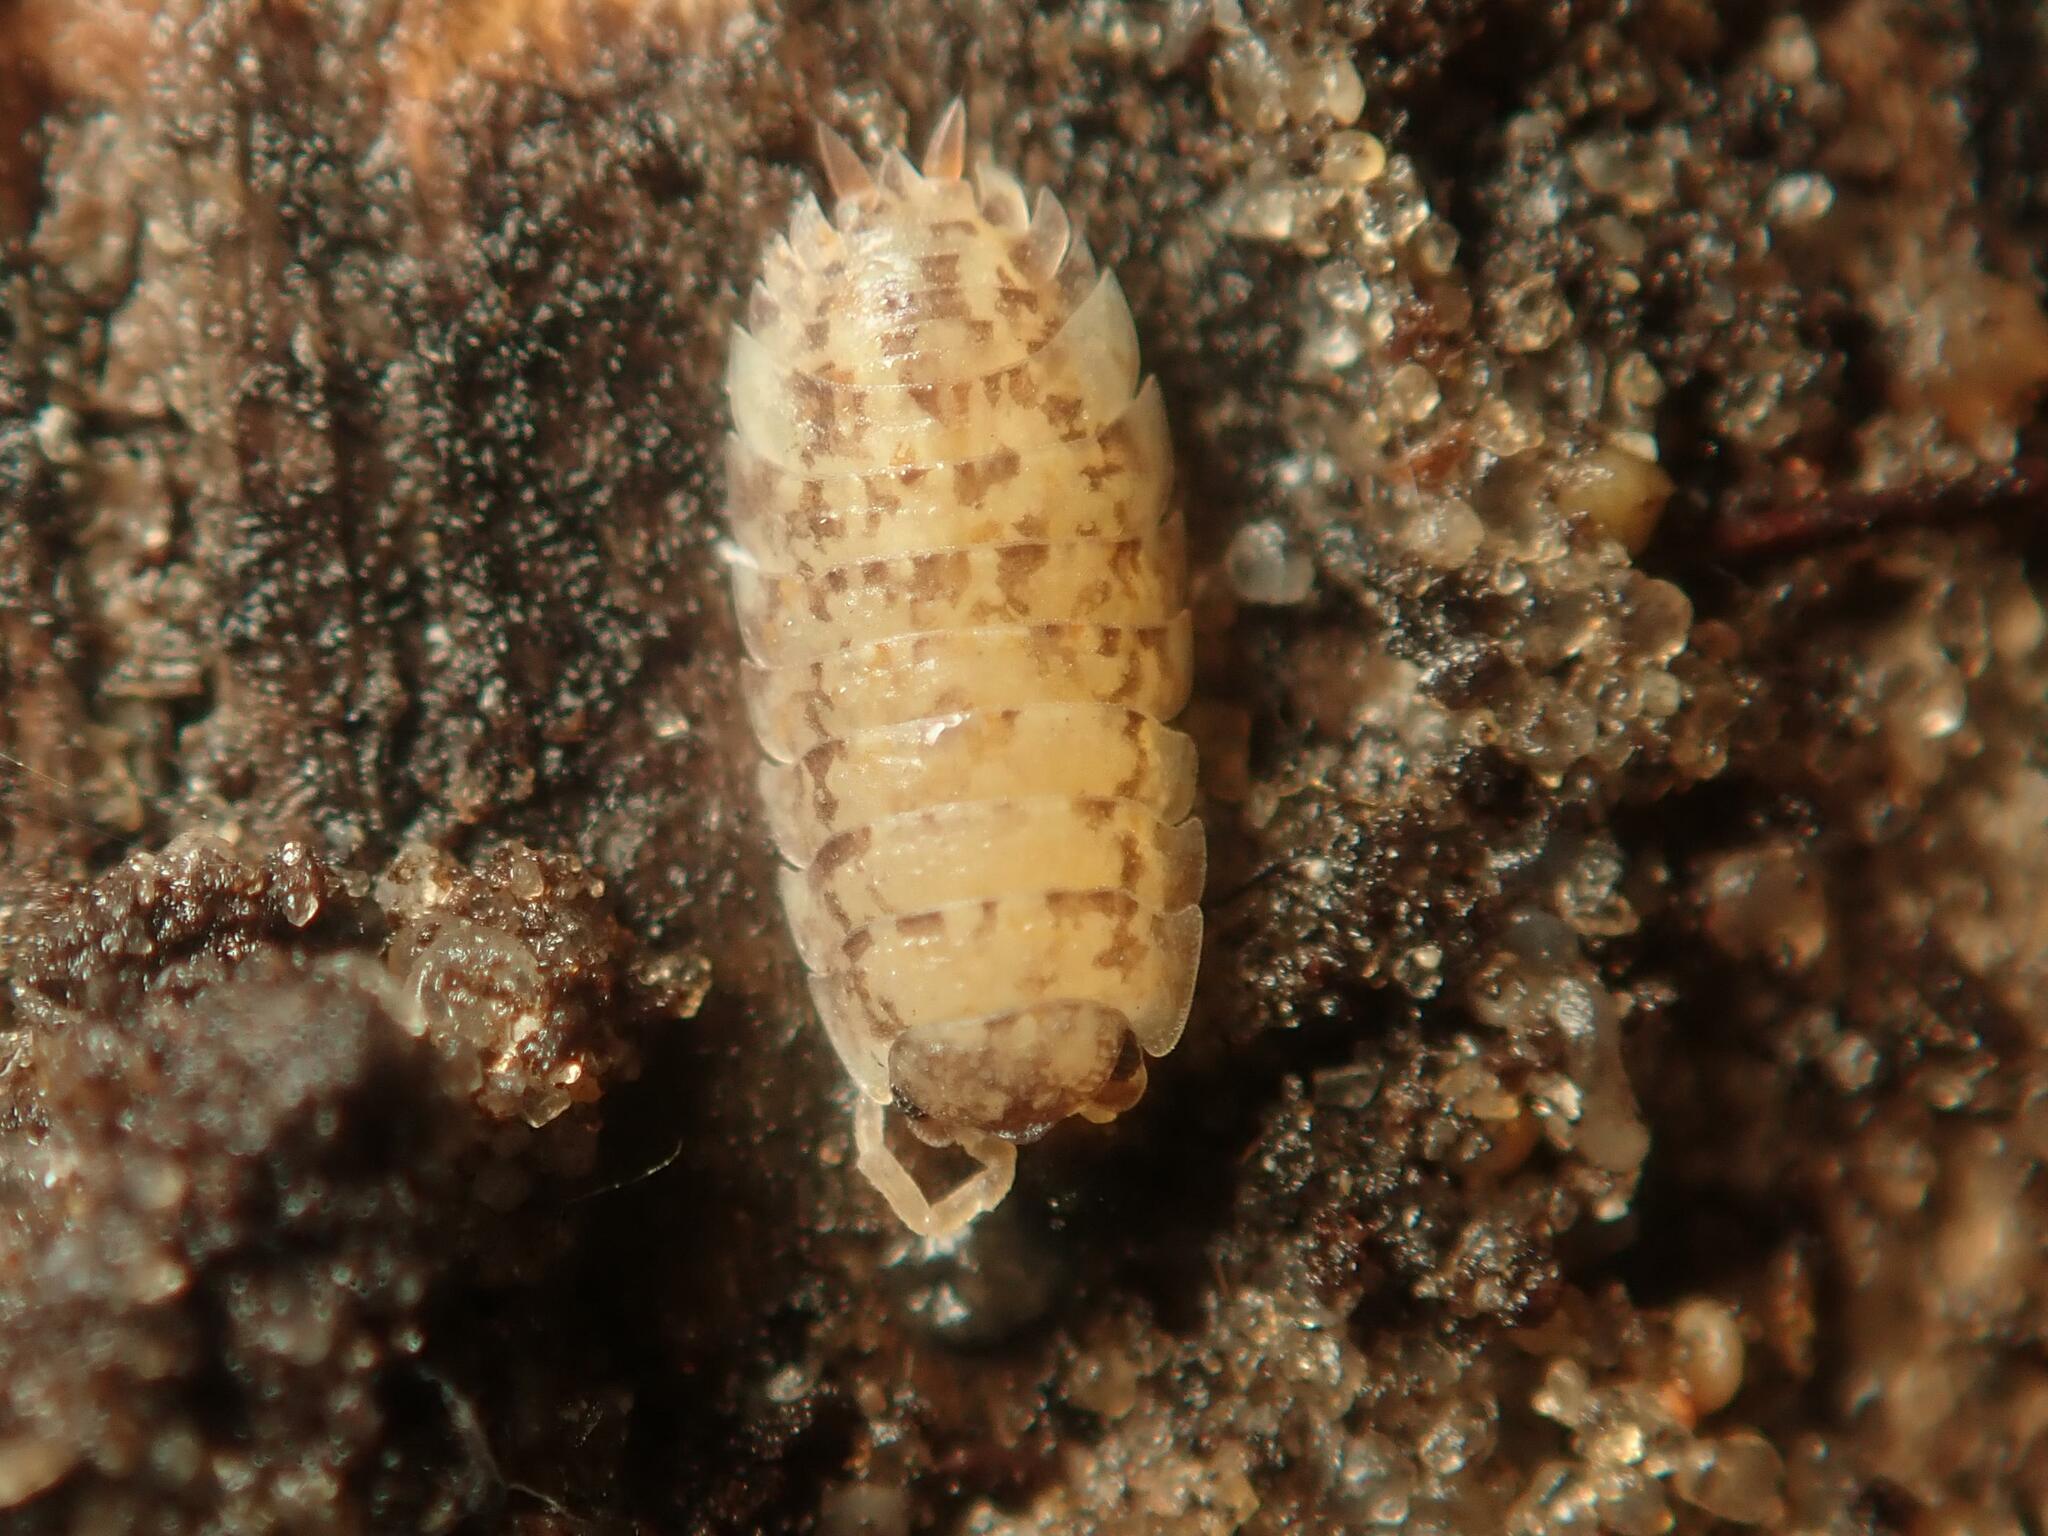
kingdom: Animalia
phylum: Arthropoda
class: Malacostraca
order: Isopoda
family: Porcellionidae
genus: Porcellio
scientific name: Porcellio scaber
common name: Common rough woodlouse
